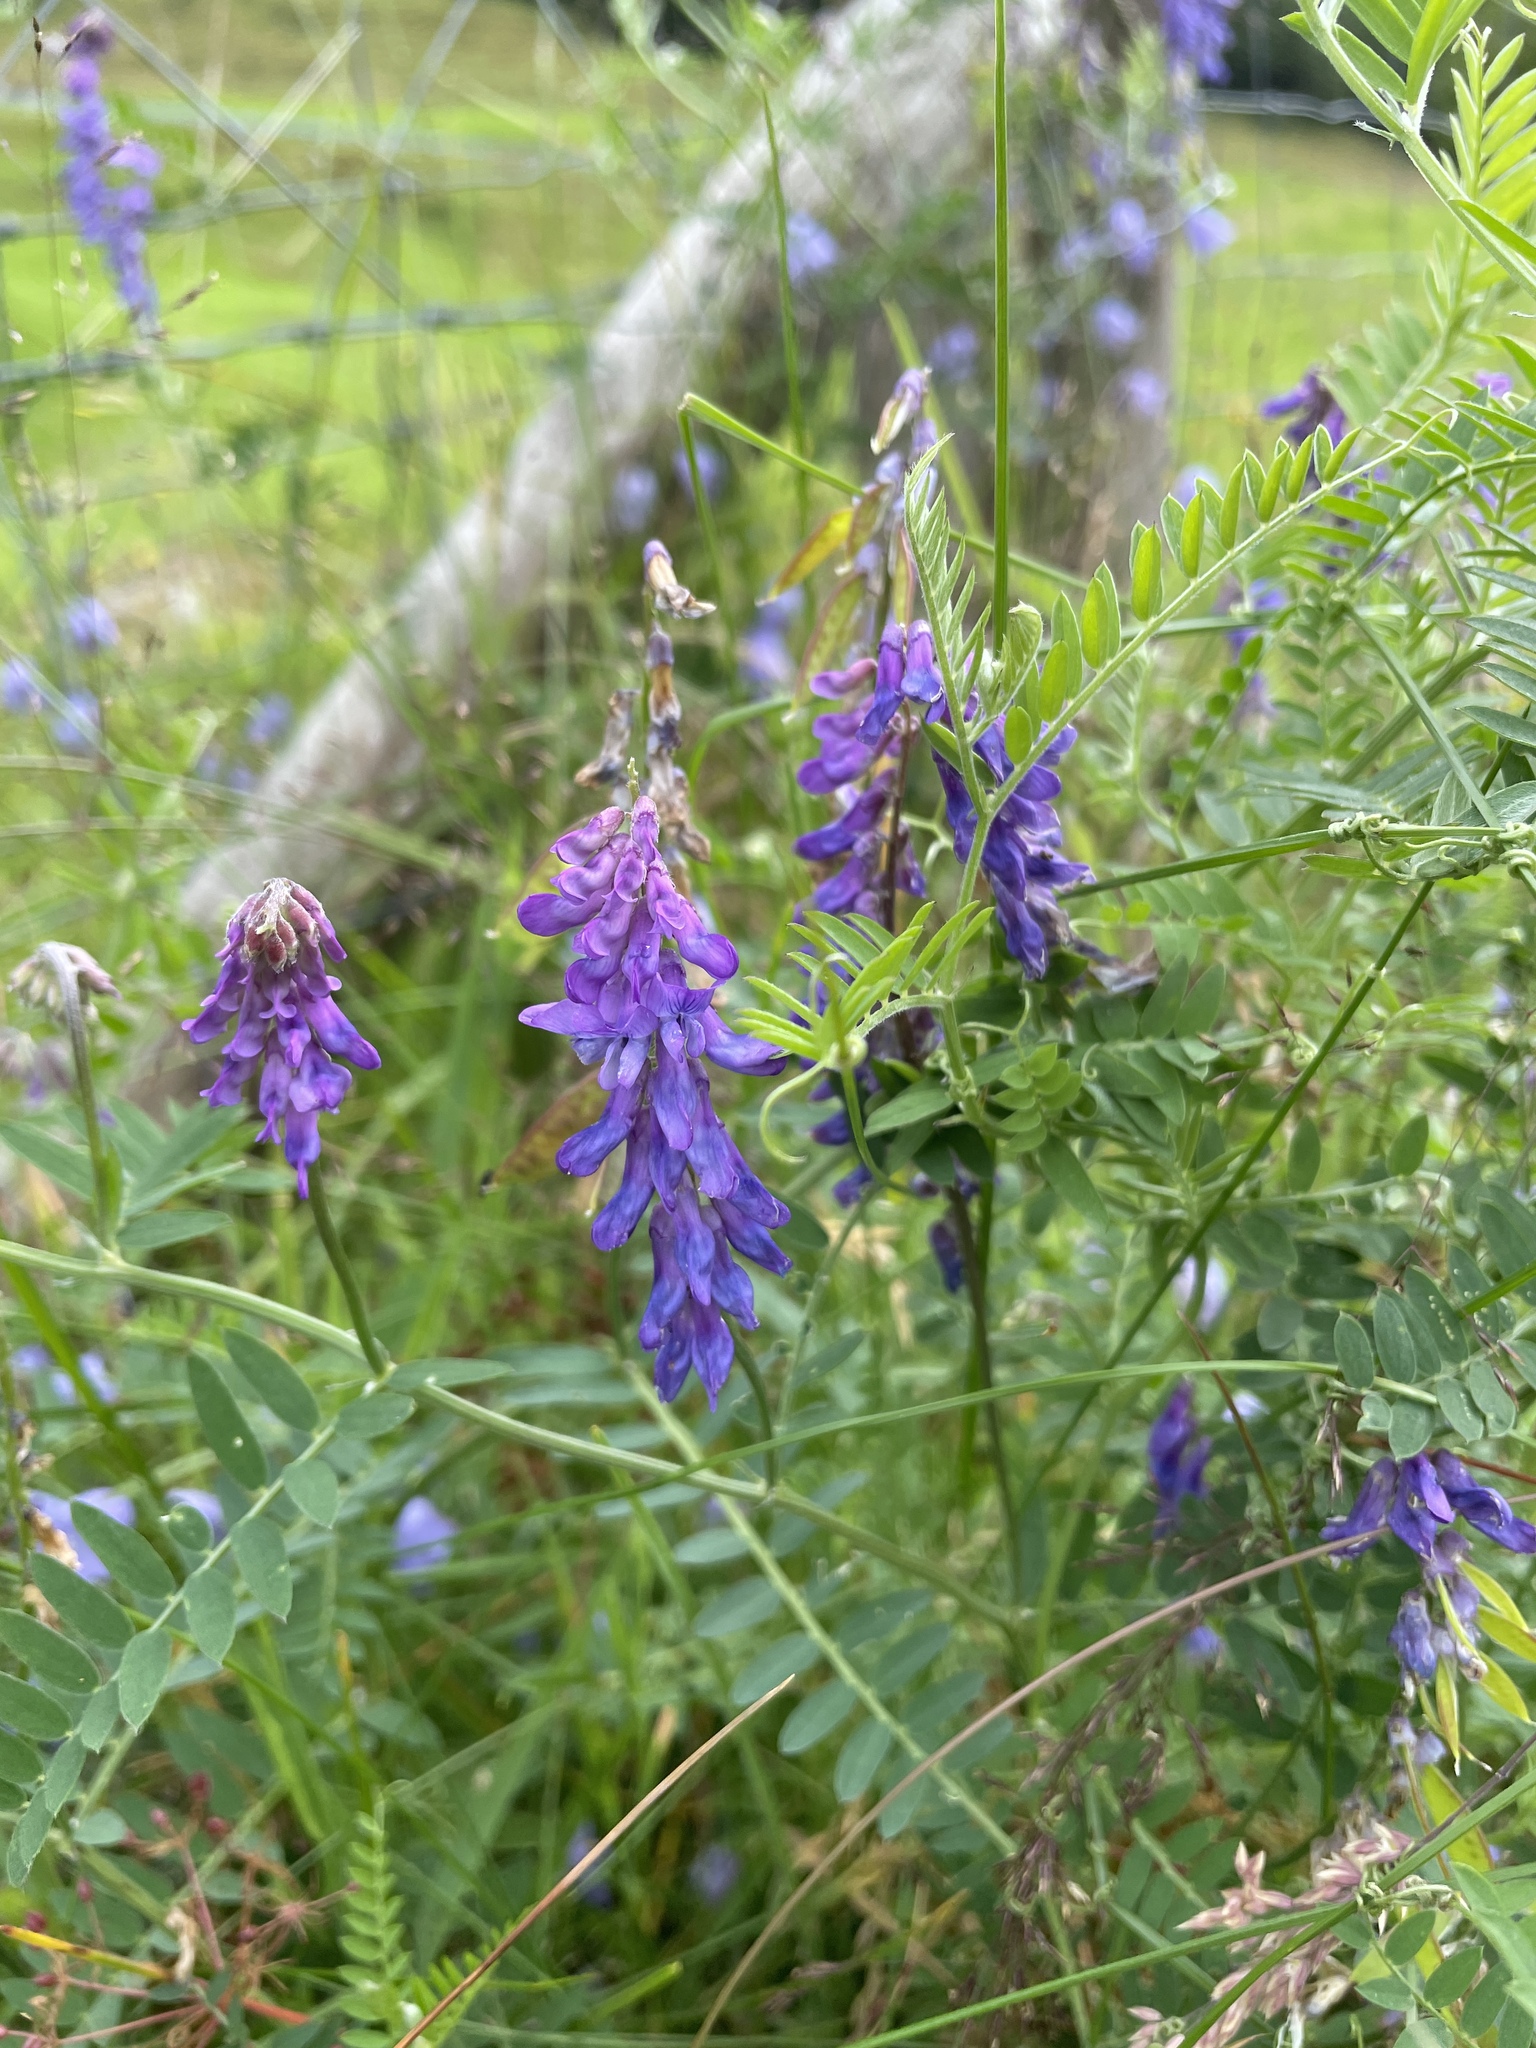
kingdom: Plantae
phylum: Tracheophyta
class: Magnoliopsida
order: Fabales
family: Fabaceae
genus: Vicia
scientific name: Vicia cracca
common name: Bird vetch
